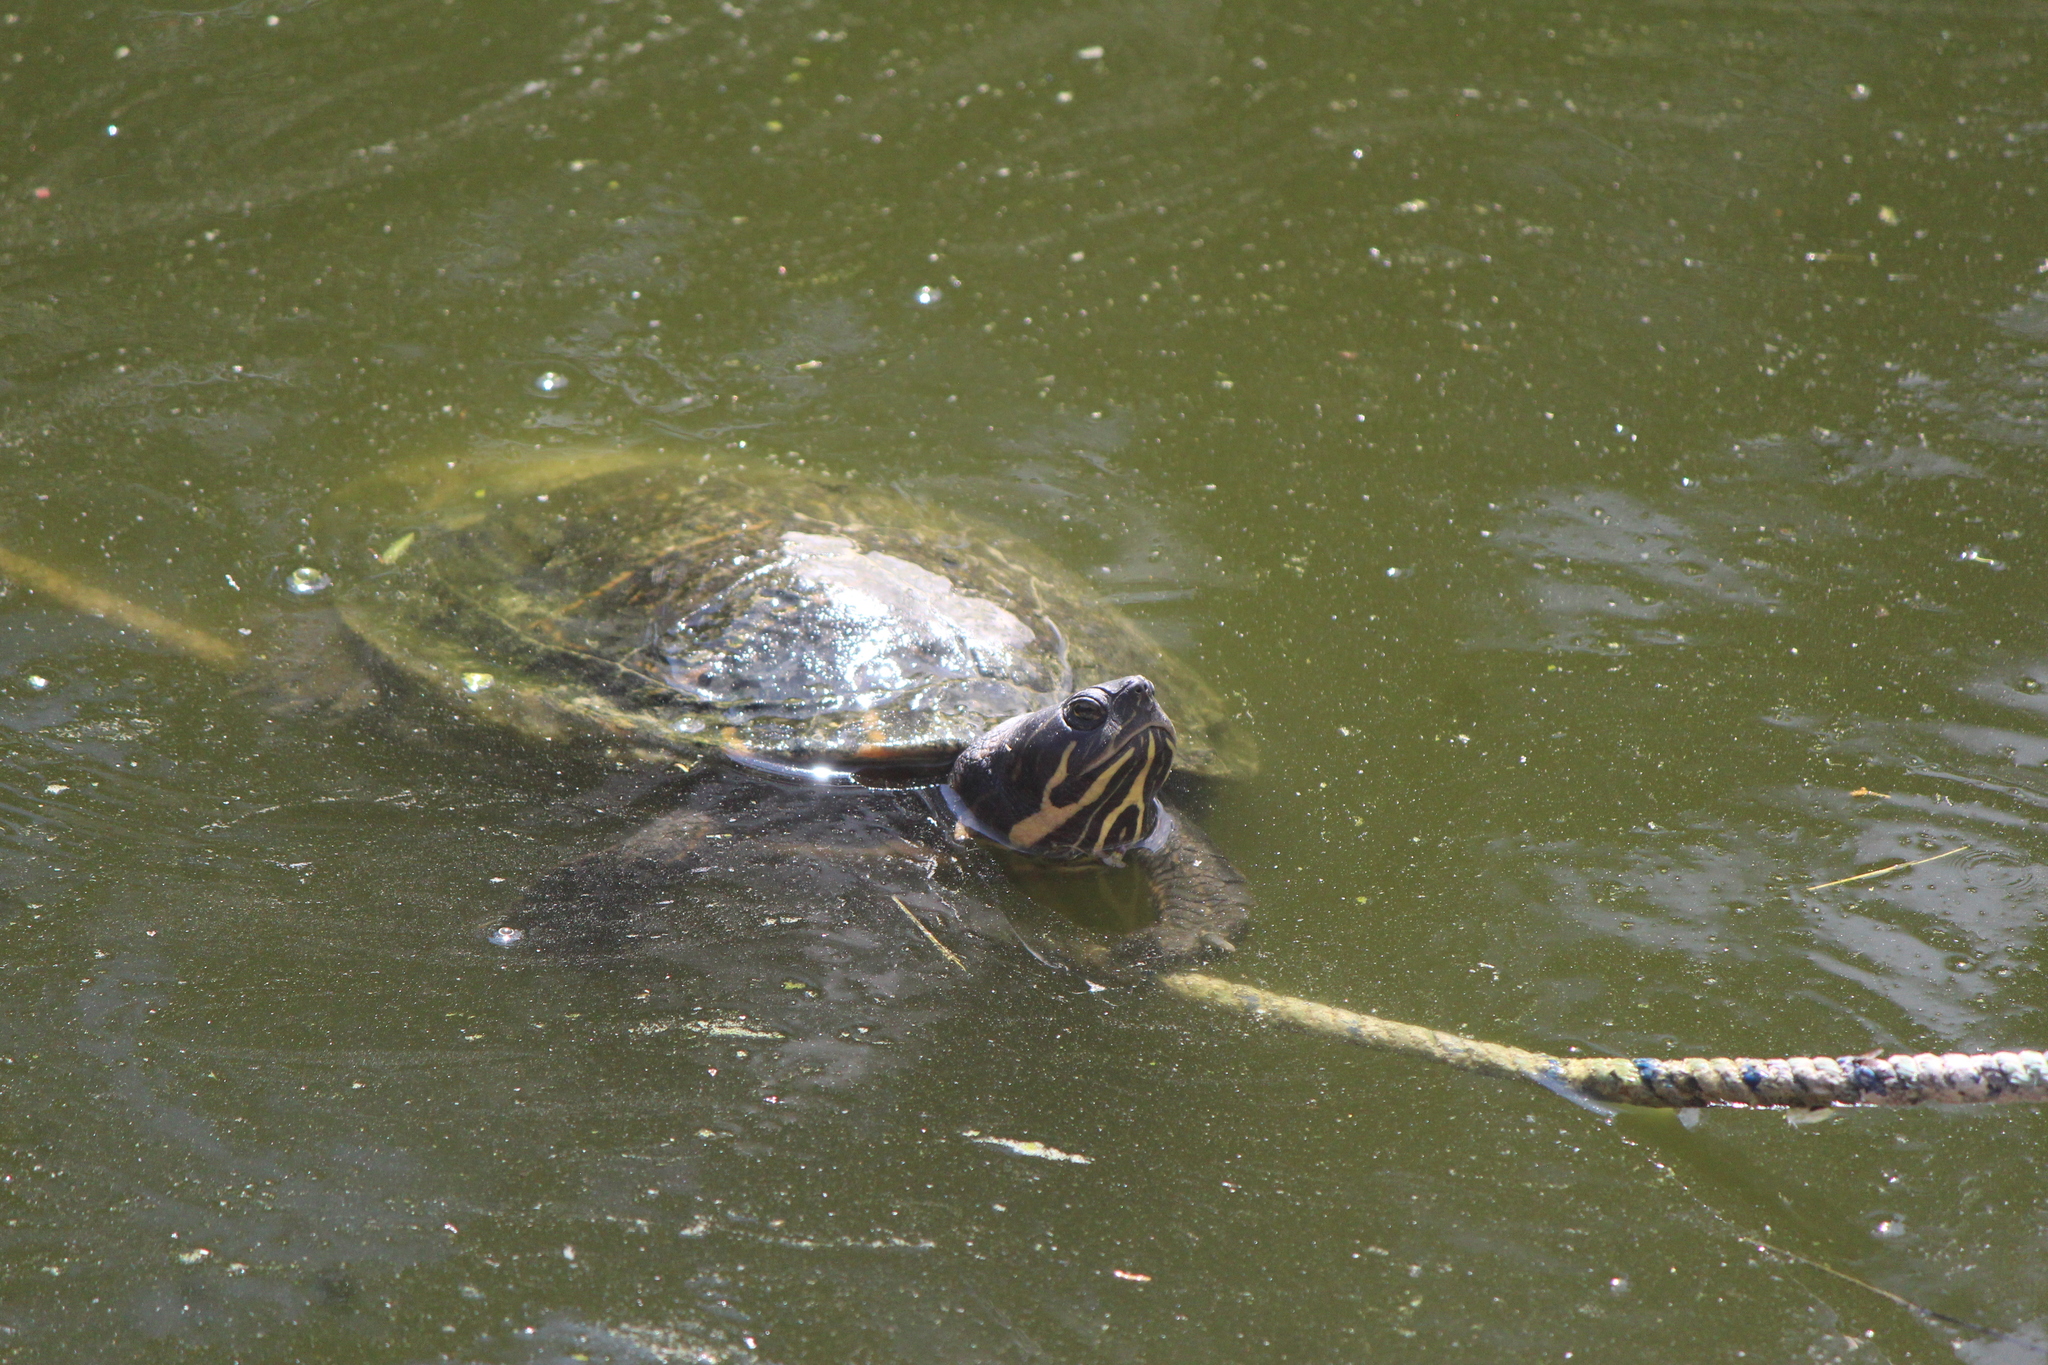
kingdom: Animalia
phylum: Chordata
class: Testudines
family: Emydidae
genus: Pseudemys
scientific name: Pseudemys concinna
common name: Eastern river cooter
